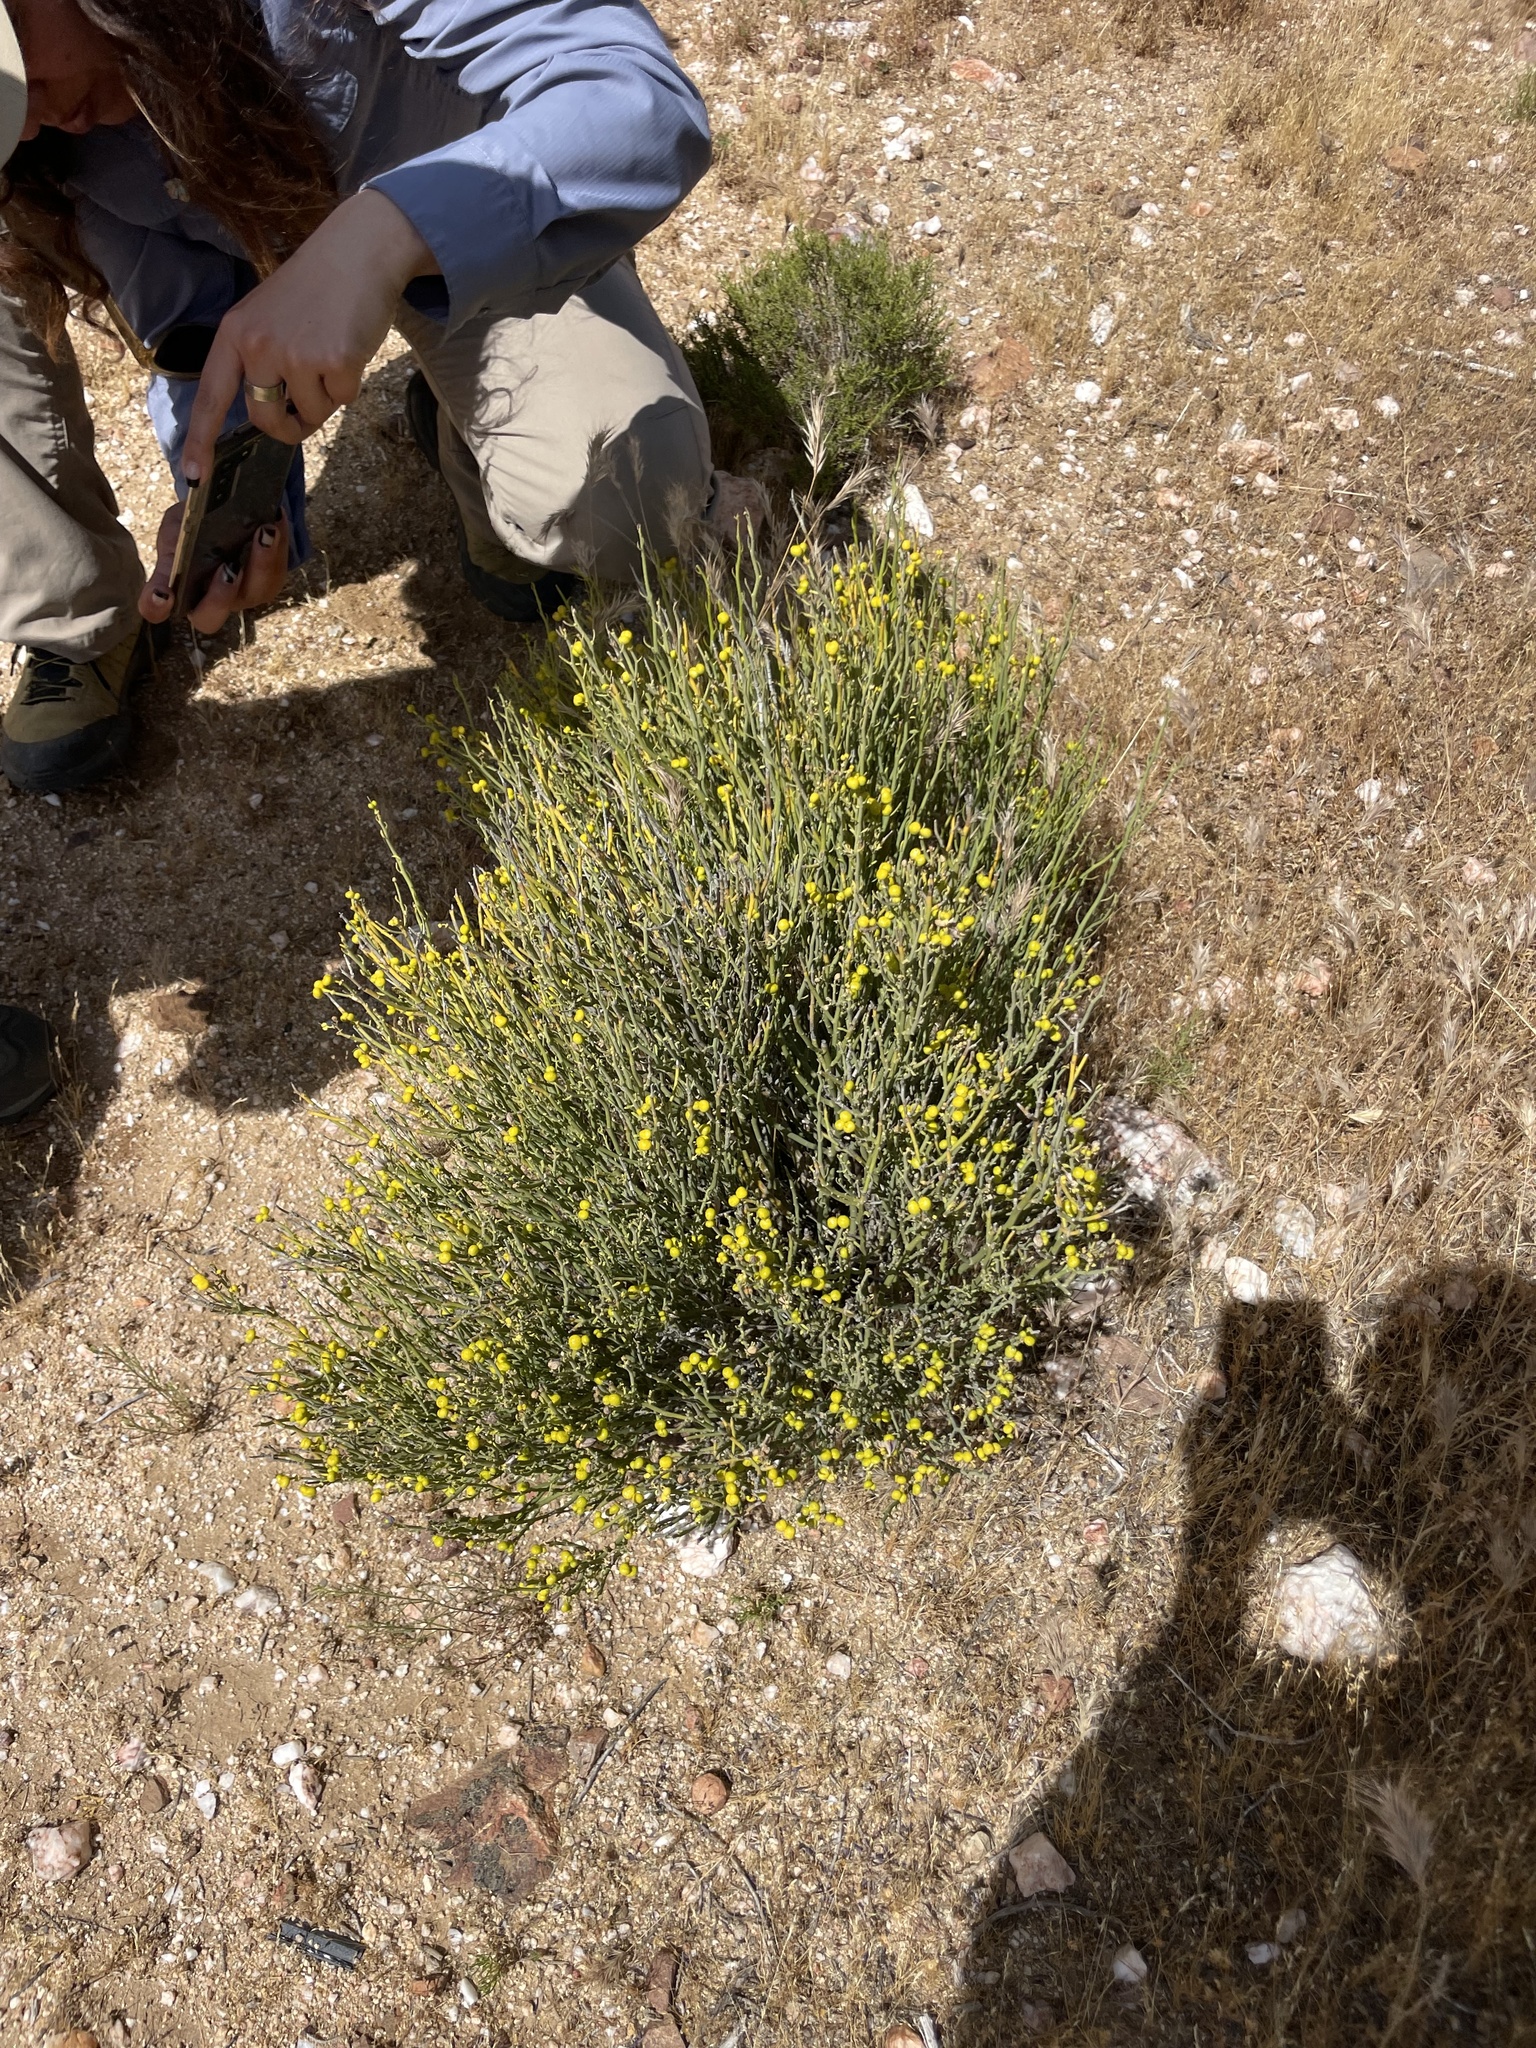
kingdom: Plantae
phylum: Tracheophyta
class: Magnoliopsida
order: Sapindales
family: Rutaceae
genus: Thamnosma
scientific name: Thamnosma montana
